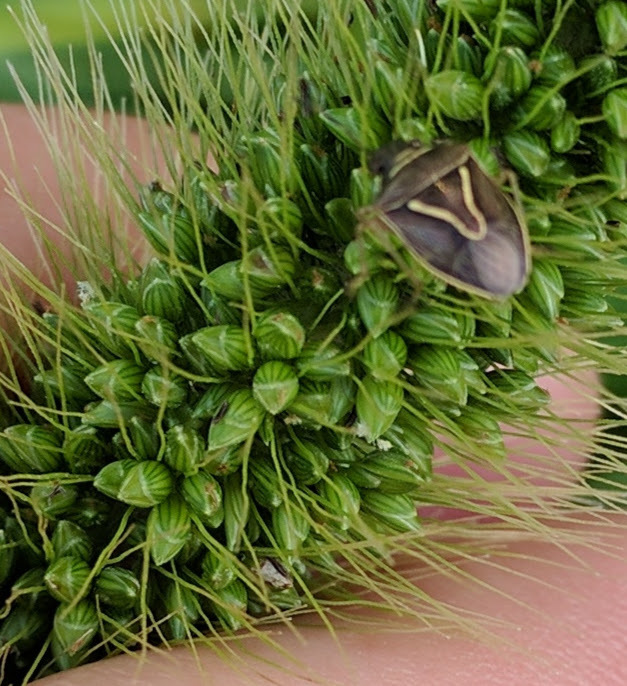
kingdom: Animalia
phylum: Arthropoda
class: Insecta
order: Hemiptera
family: Pentatomidae
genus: Mormidea
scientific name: Mormidea lugens
